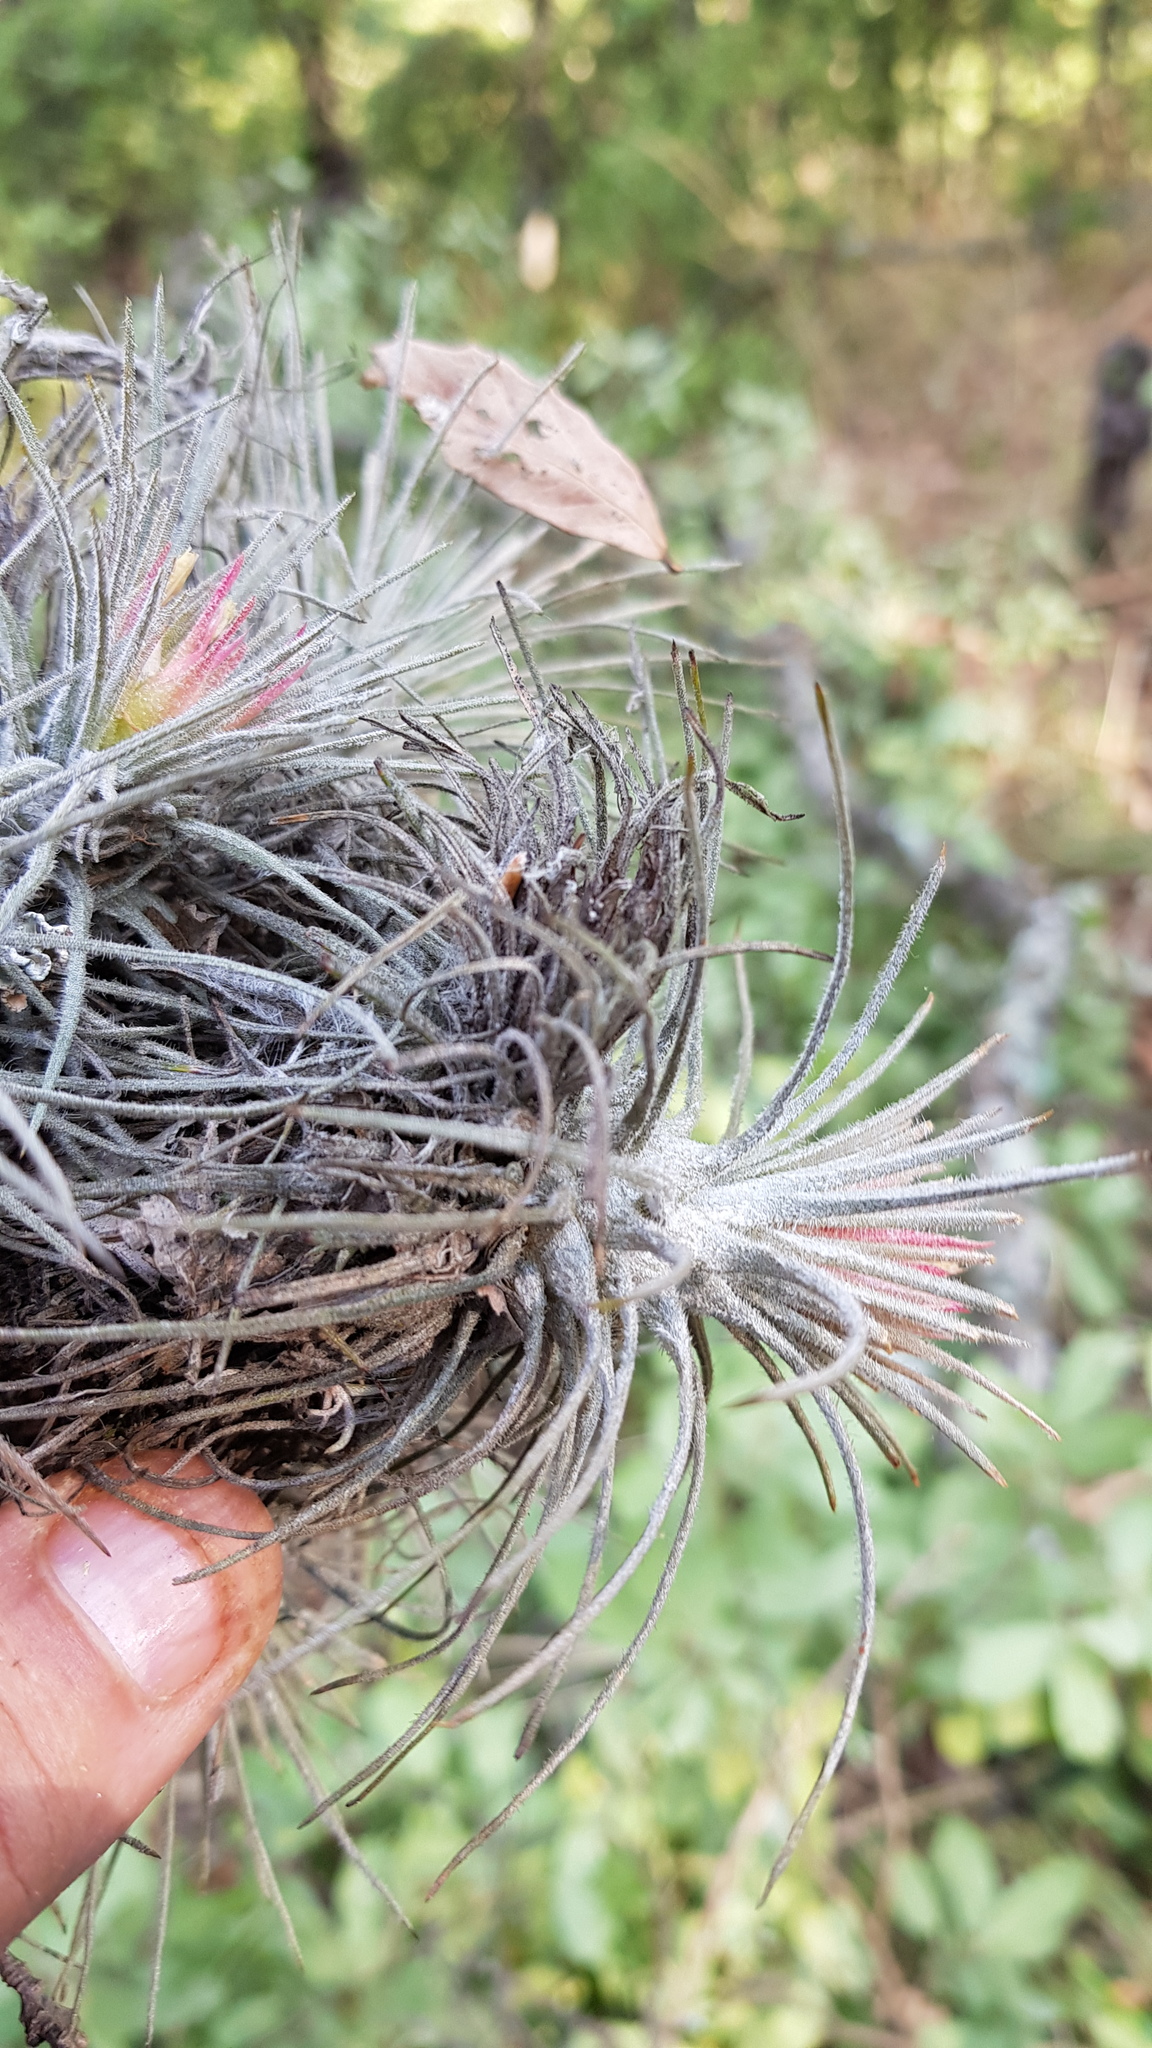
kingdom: Plantae
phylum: Tracheophyta
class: Liliopsida
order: Poales
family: Bromeliaceae
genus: Tillandsia
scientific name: Tillandsia atroviridipetala
